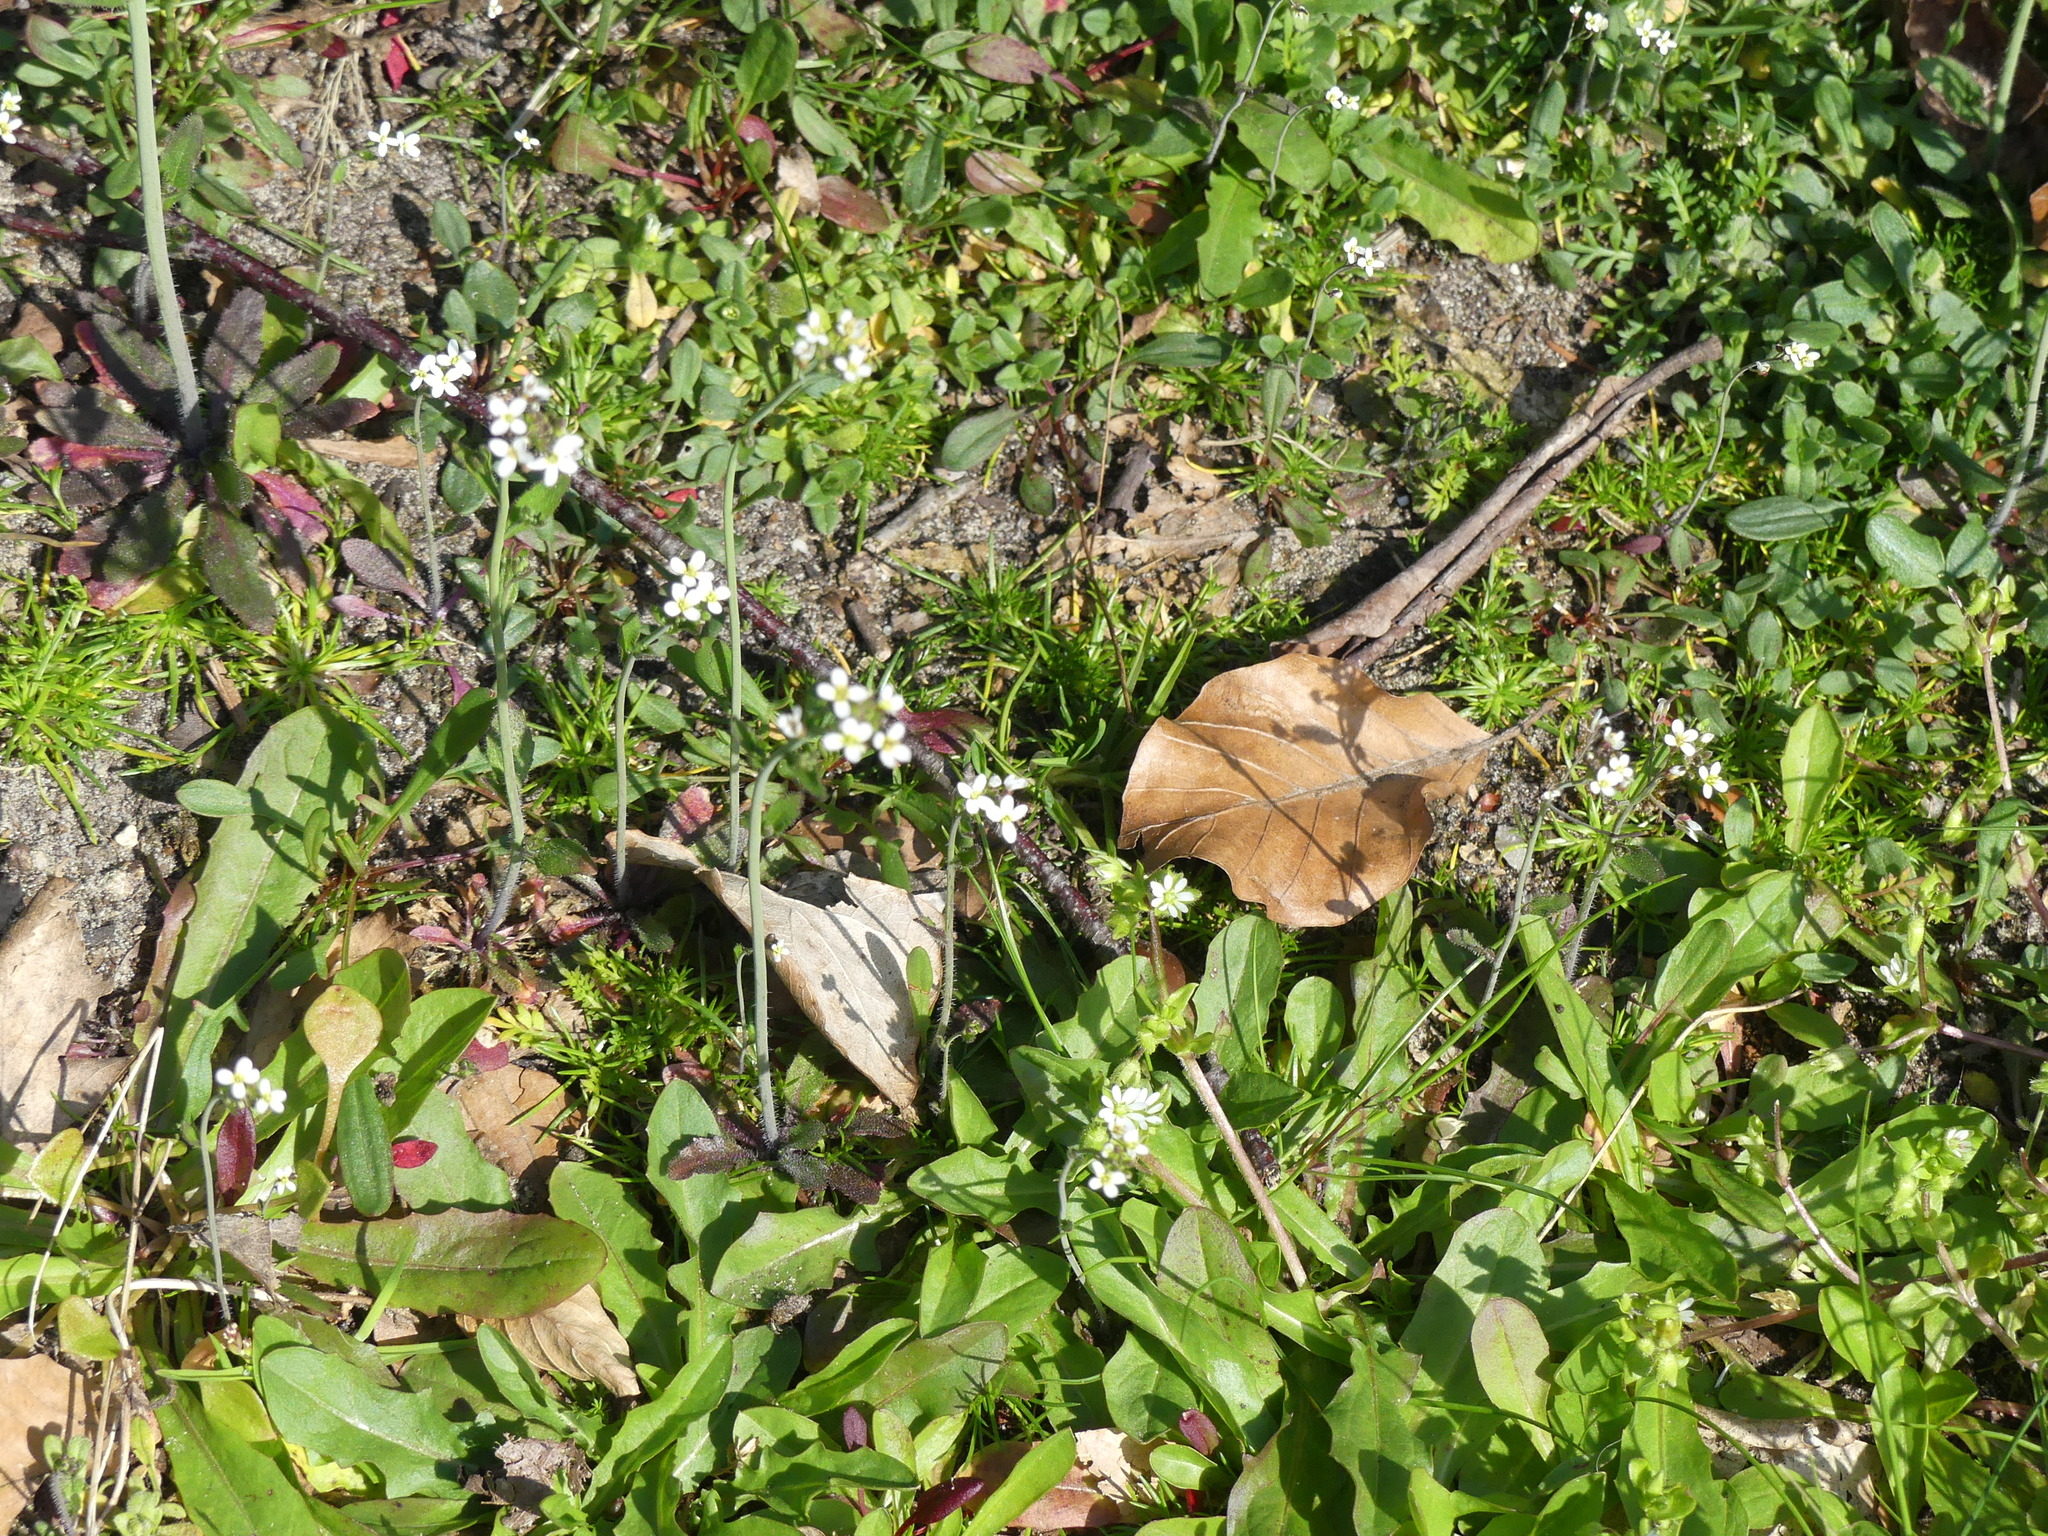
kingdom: Plantae
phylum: Tracheophyta
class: Magnoliopsida
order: Brassicales
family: Brassicaceae
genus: Arabidopsis
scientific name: Arabidopsis thaliana
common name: Thale cress
